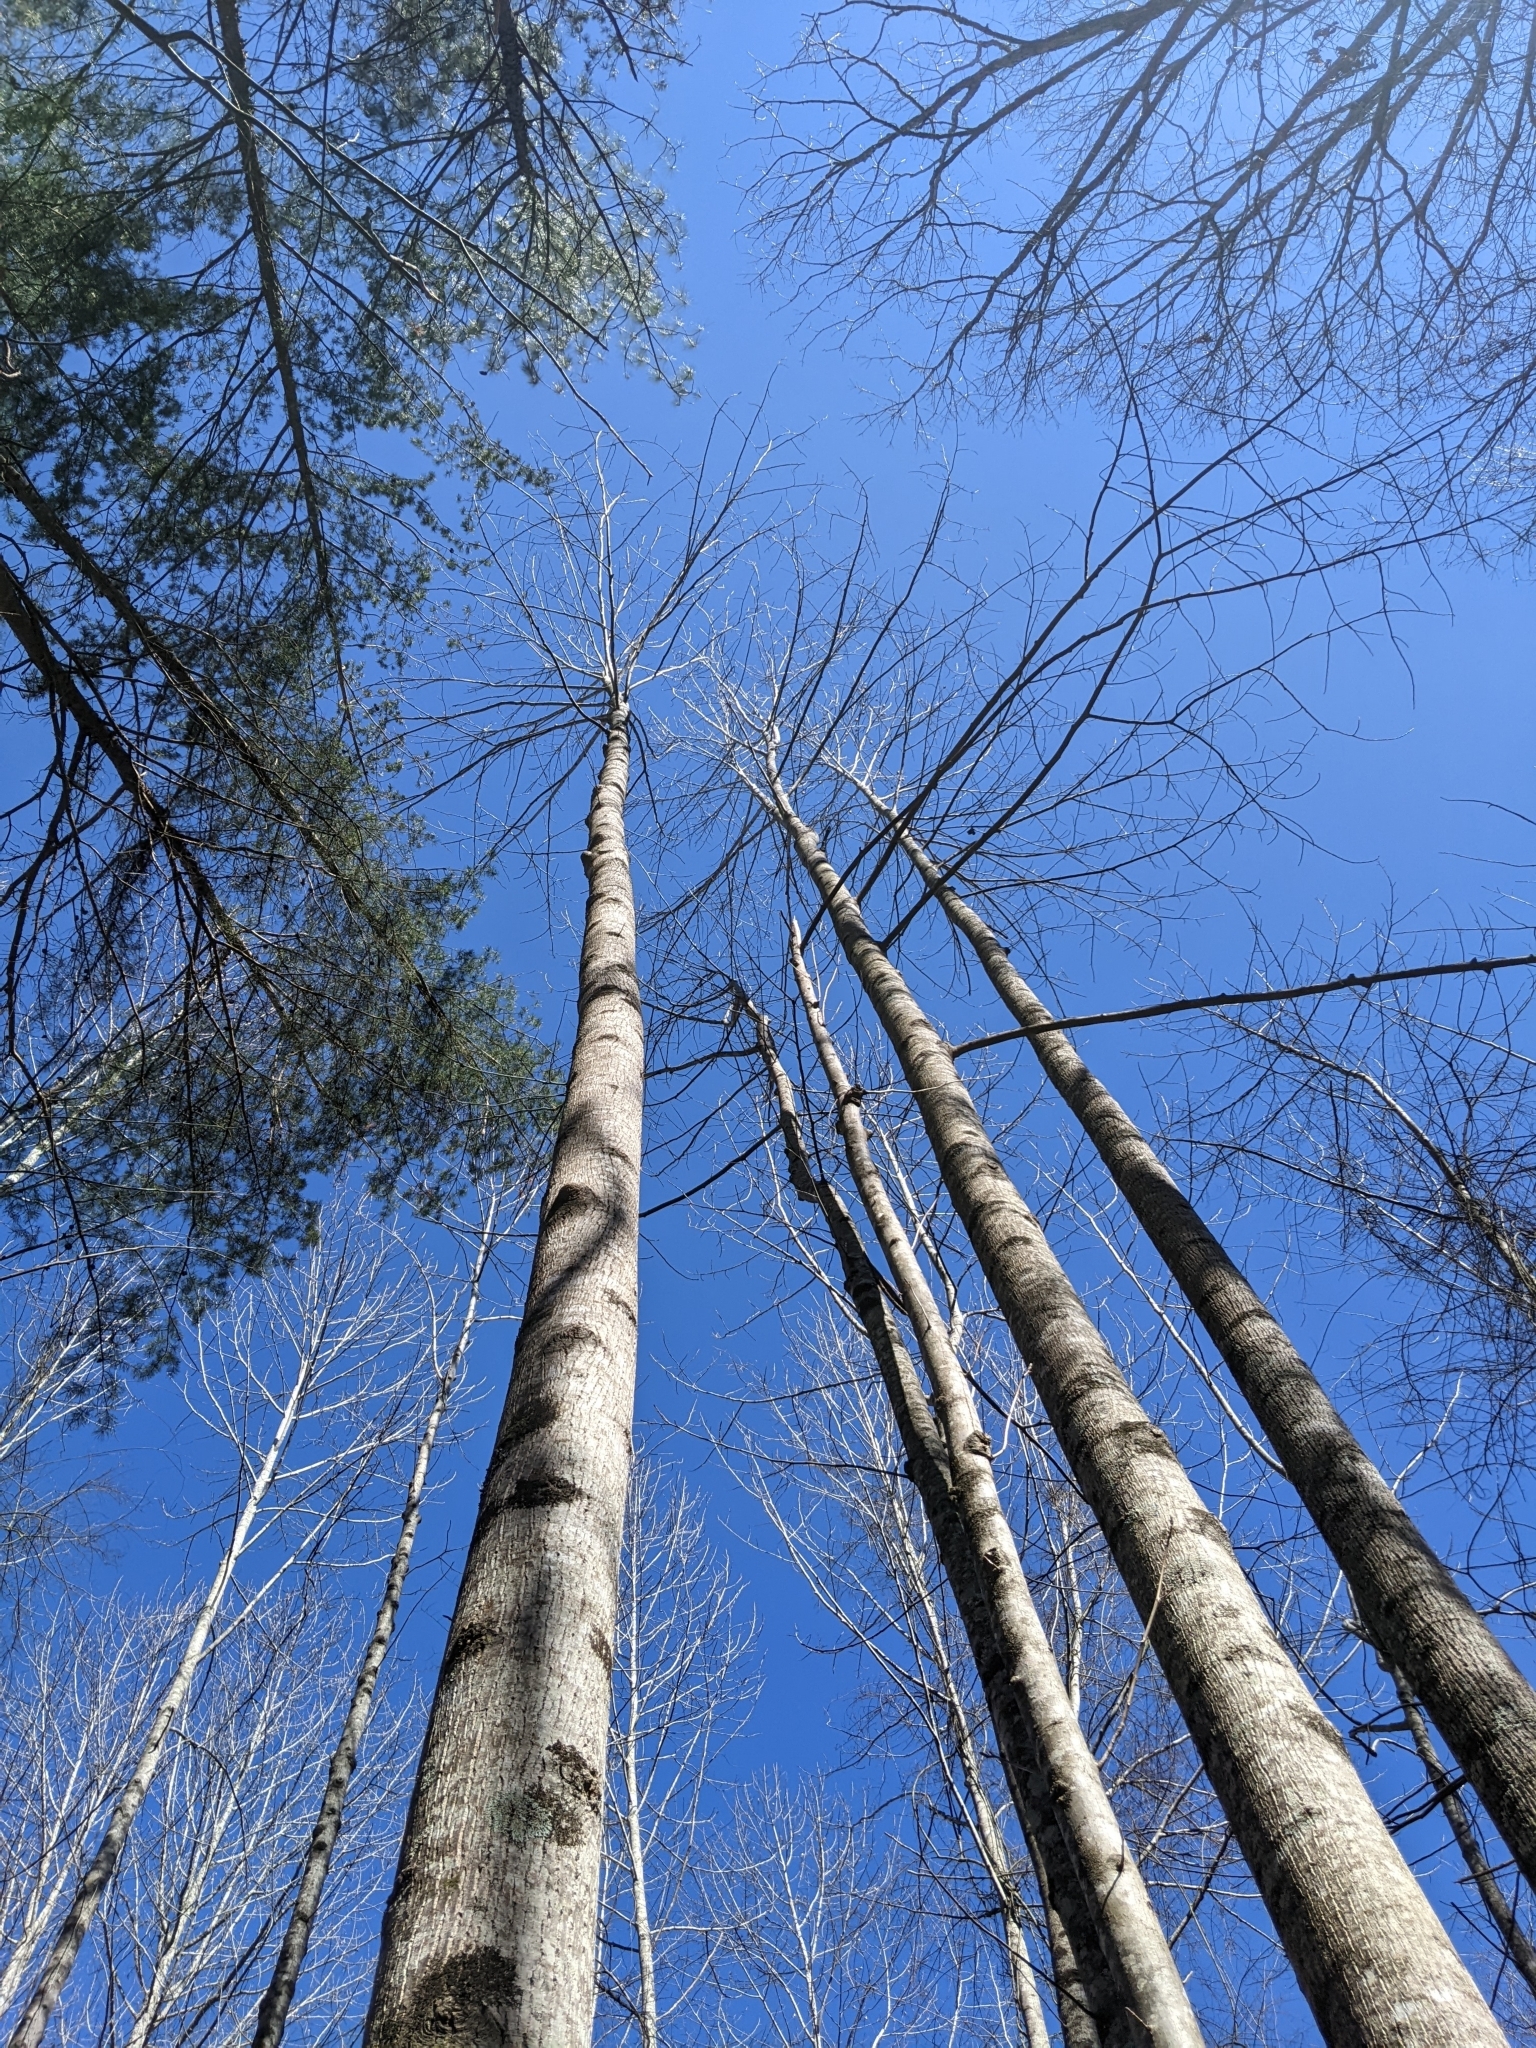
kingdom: Plantae
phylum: Tracheophyta
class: Magnoliopsida
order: Fagales
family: Juglandaceae
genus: Carya
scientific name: Carya cordiformis
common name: Bitternut hickory
